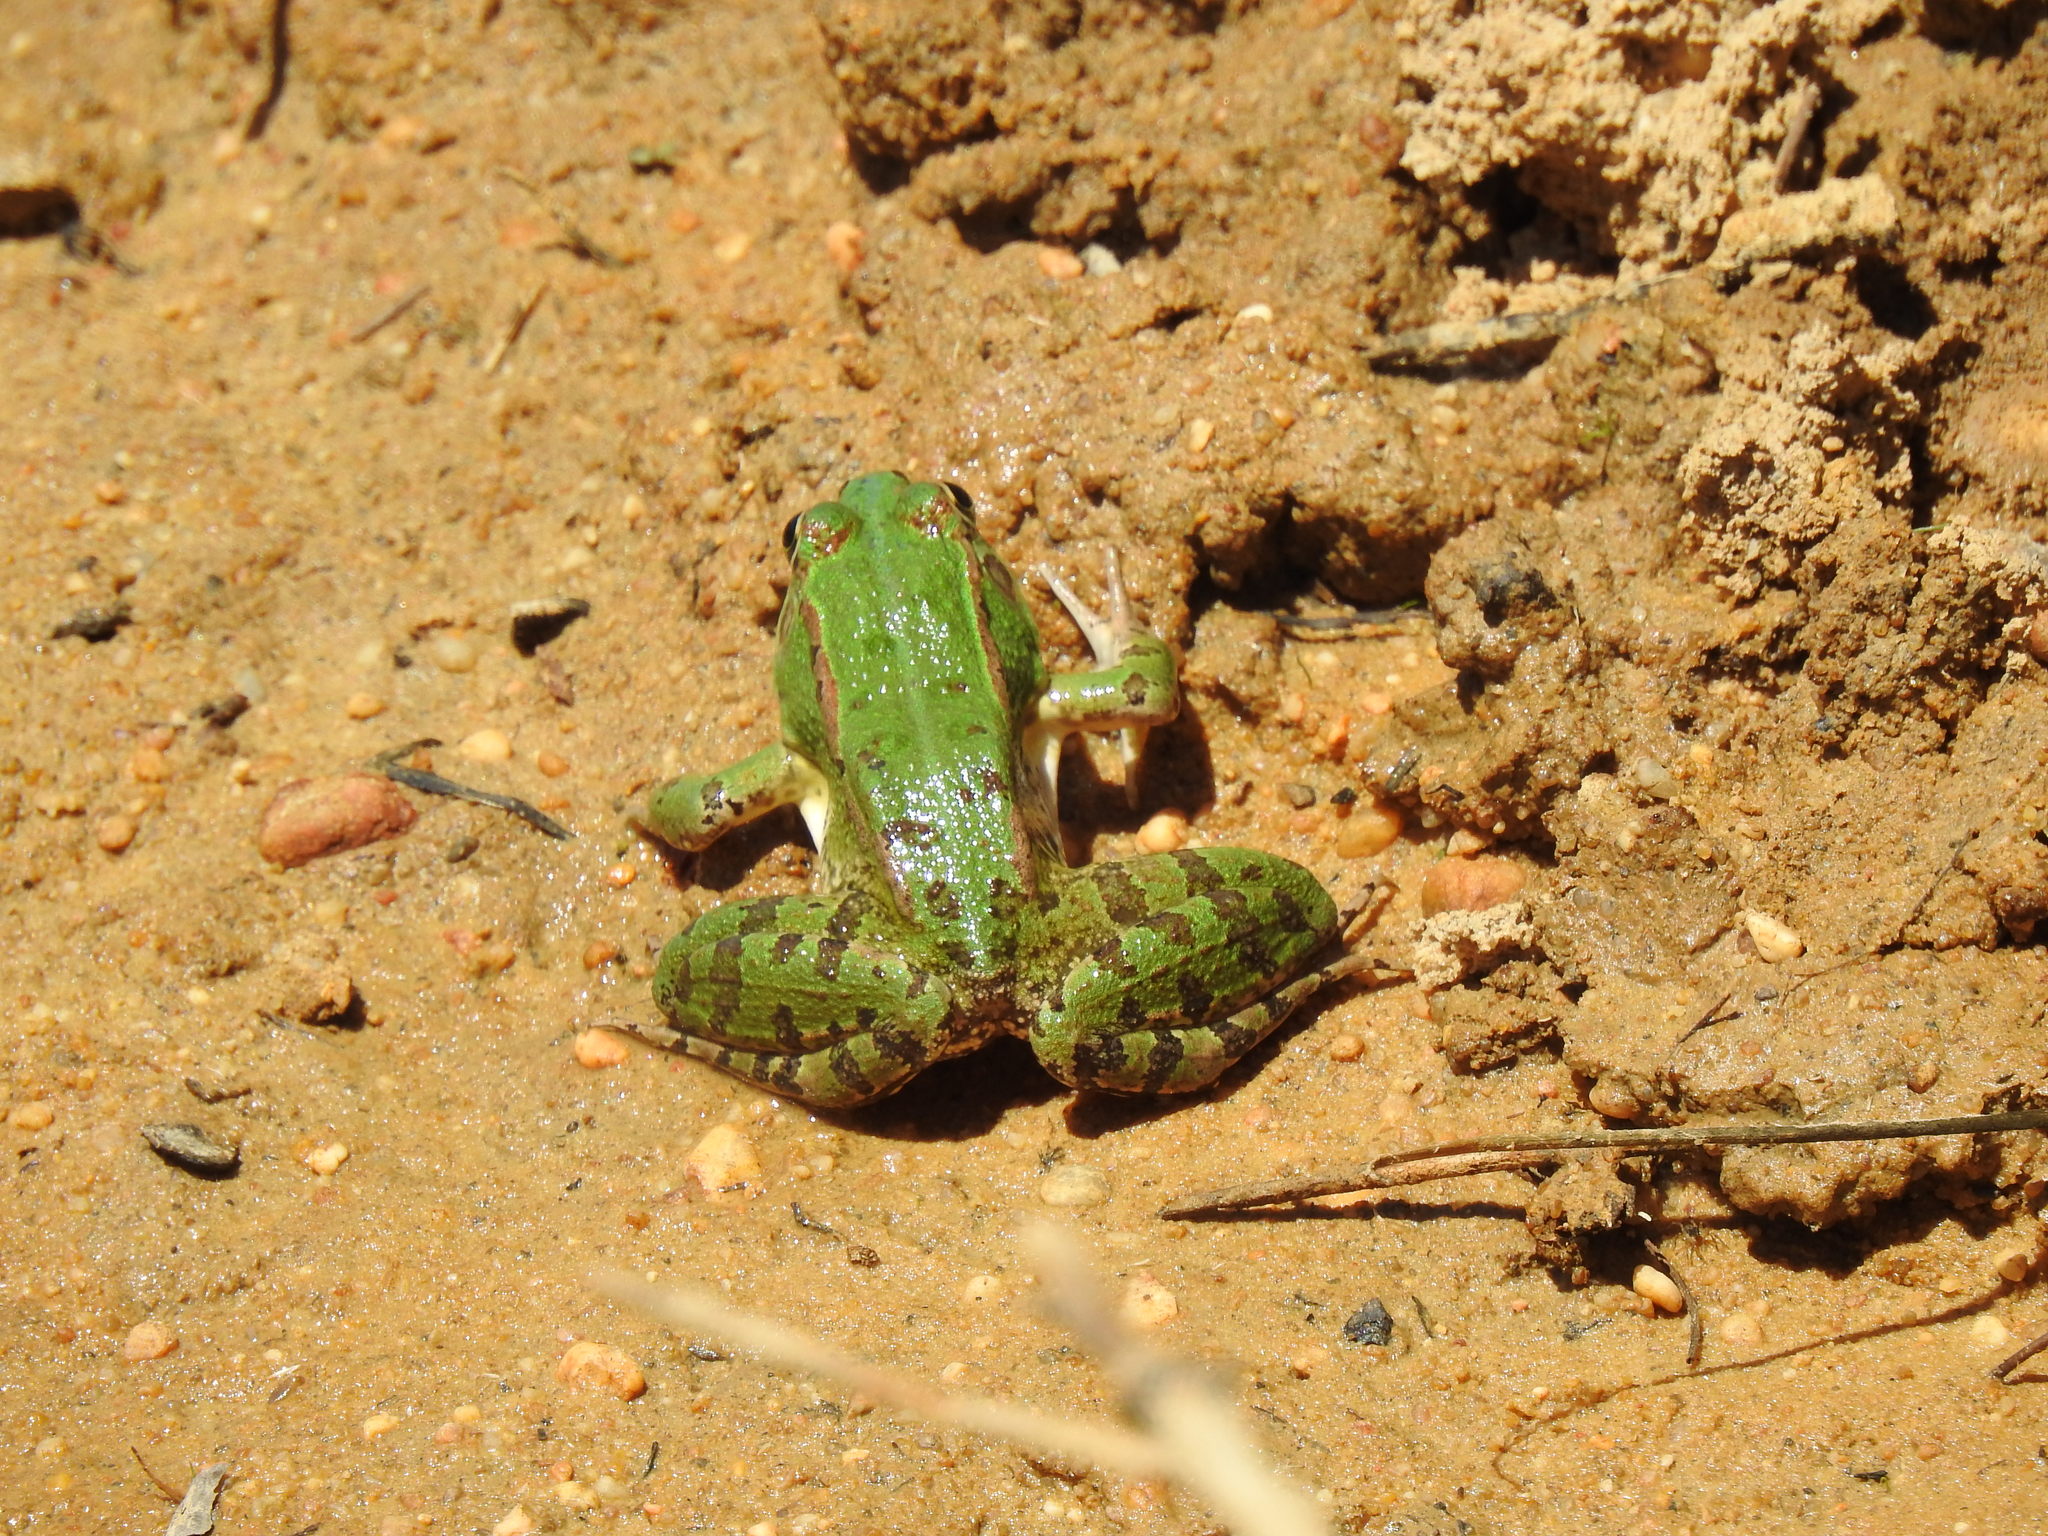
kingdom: Animalia
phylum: Chordata
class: Amphibia
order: Anura
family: Ranidae
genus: Pelophylax
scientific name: Pelophylax perezi
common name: Perez's frog
